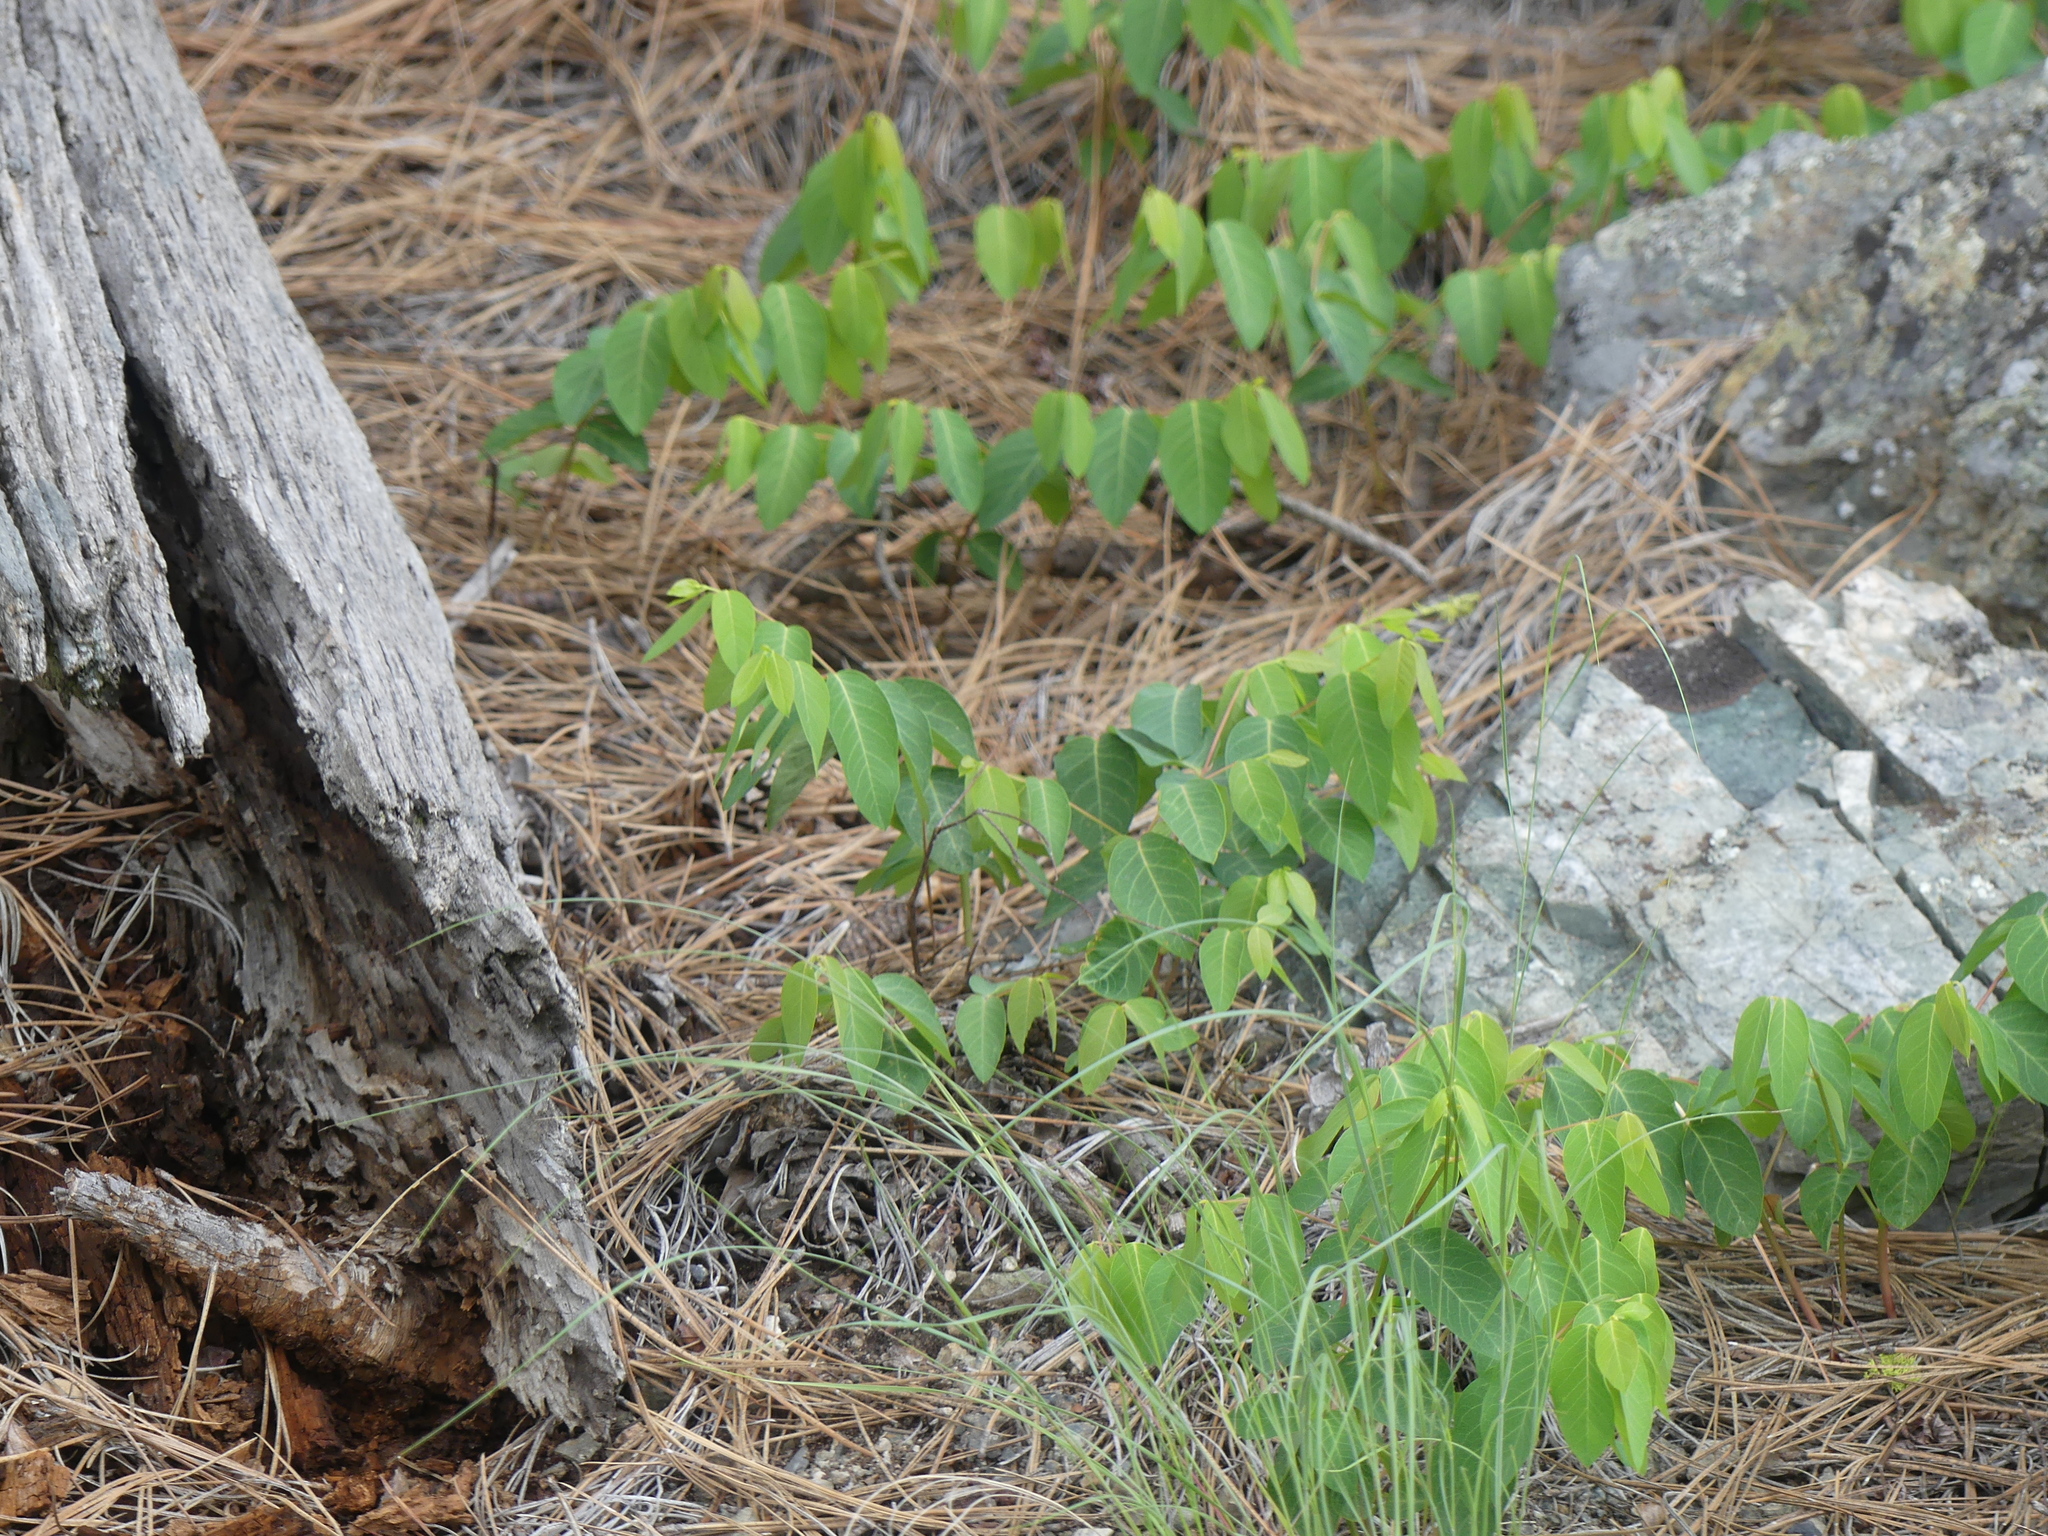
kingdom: Plantae
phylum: Tracheophyta
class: Magnoliopsida
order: Gentianales
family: Apocynaceae
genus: Apocynum
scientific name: Apocynum androsaemifolium
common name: Spreading dogbane
